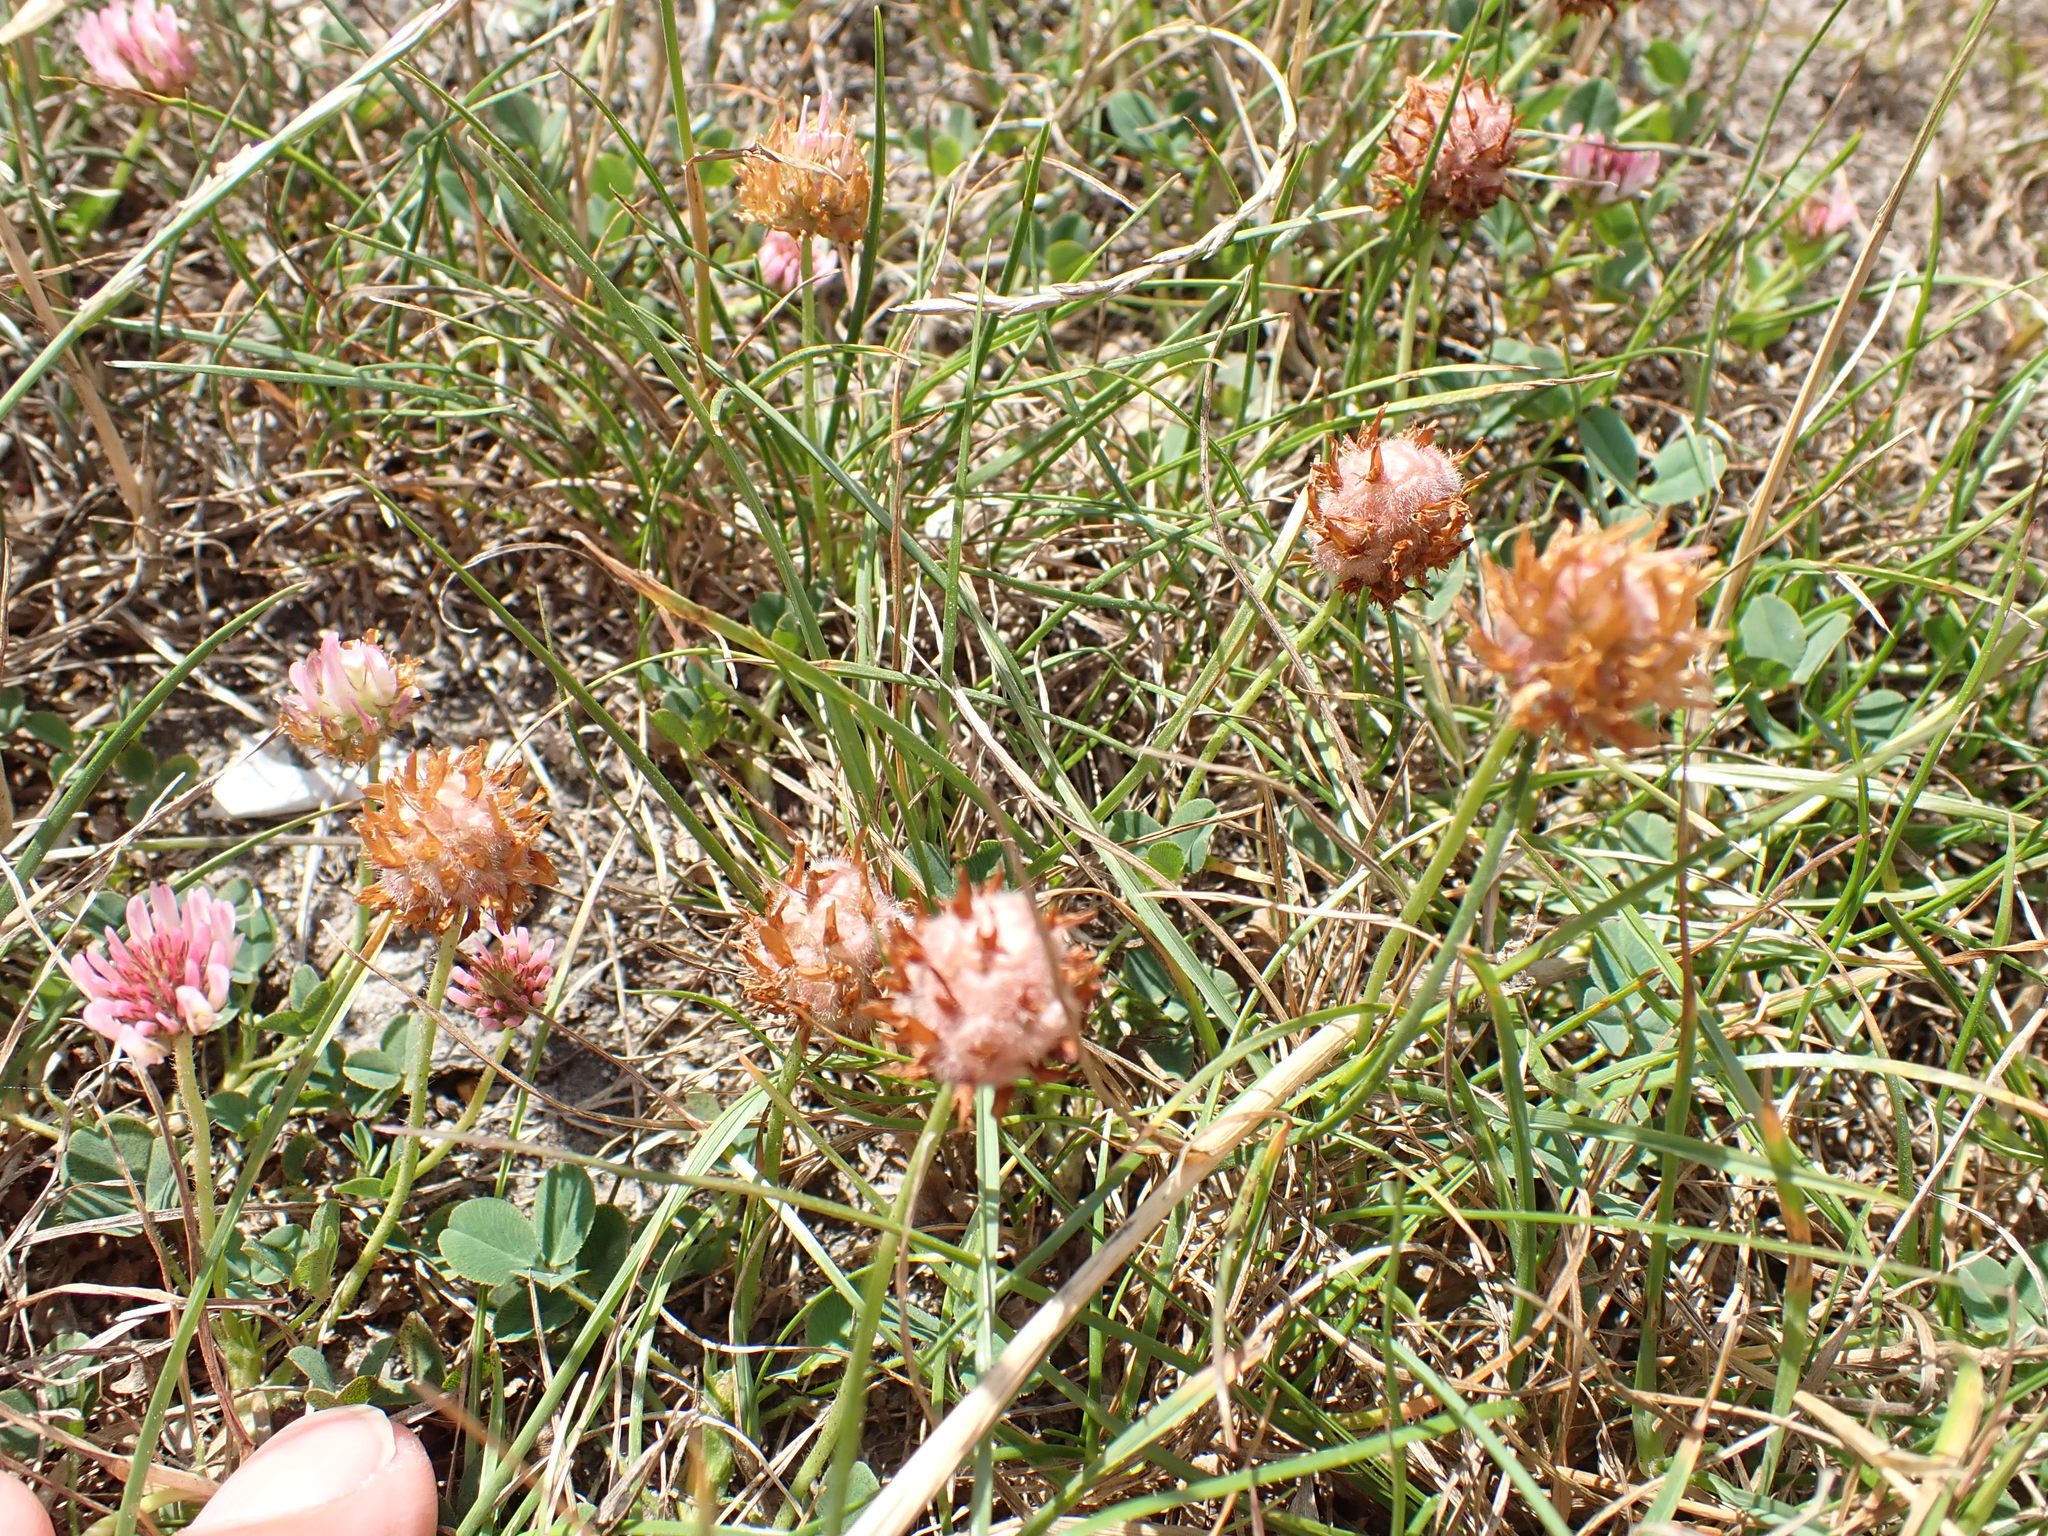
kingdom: Plantae
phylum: Tracheophyta
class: Magnoliopsida
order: Fabales
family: Fabaceae
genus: Trifolium
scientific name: Trifolium fragiferum
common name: Strawberry clover
